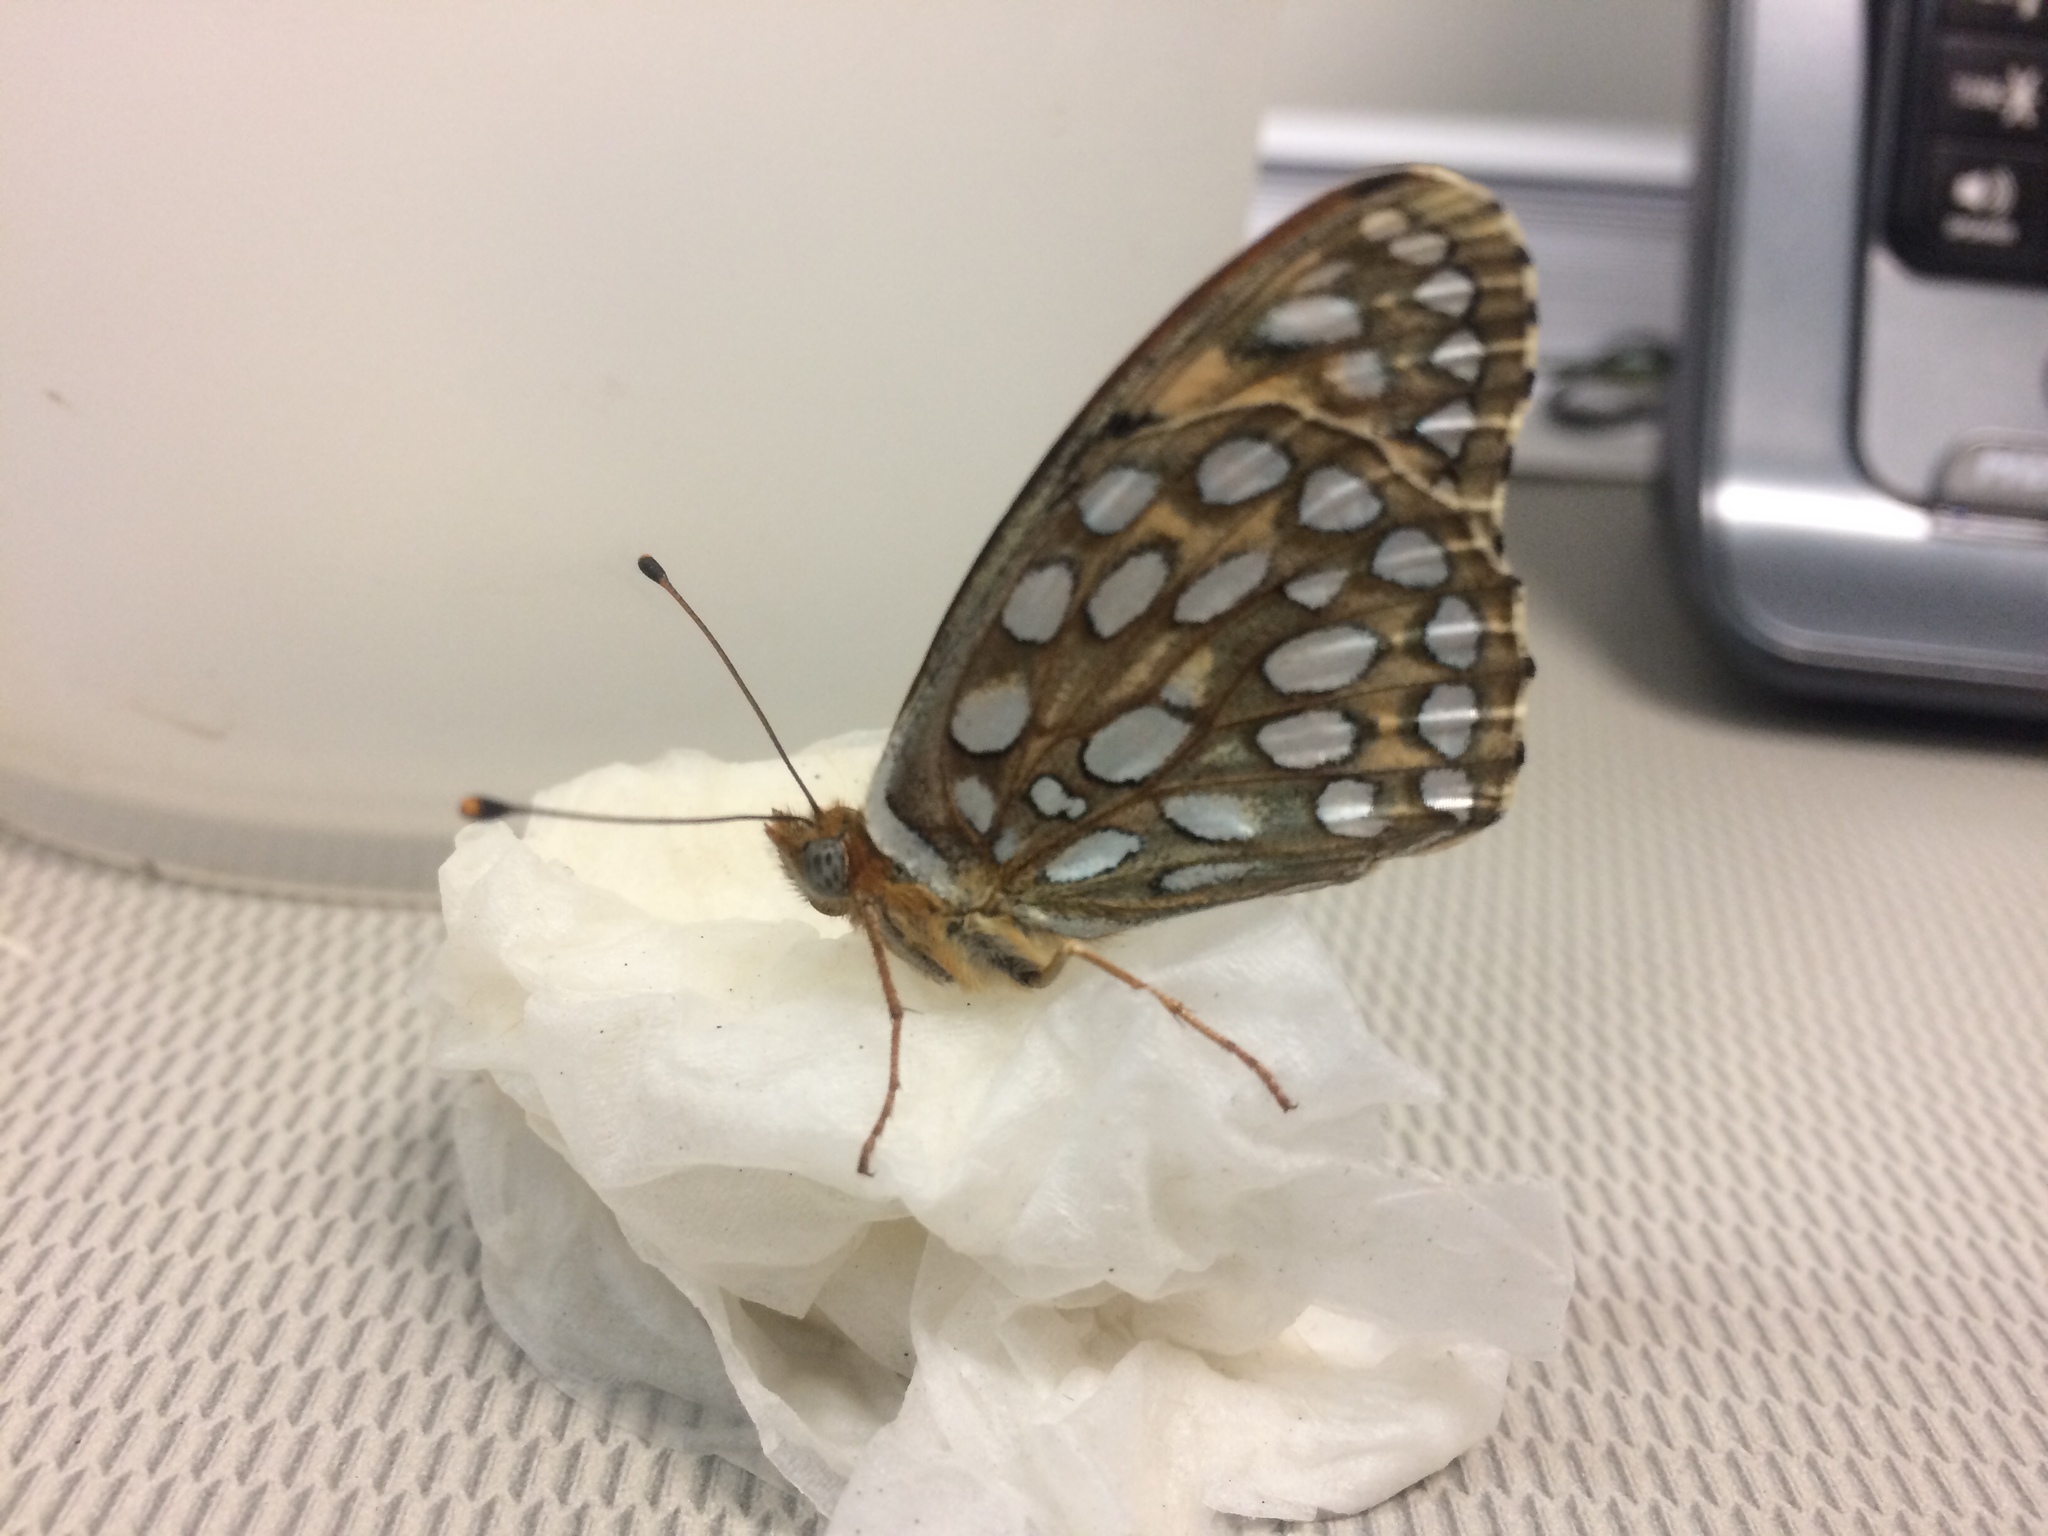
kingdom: Animalia
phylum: Arthropoda
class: Insecta
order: Lepidoptera
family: Nymphalidae
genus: Speyeria
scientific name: Speyeria edwardsii
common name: Edwards' fritillary
